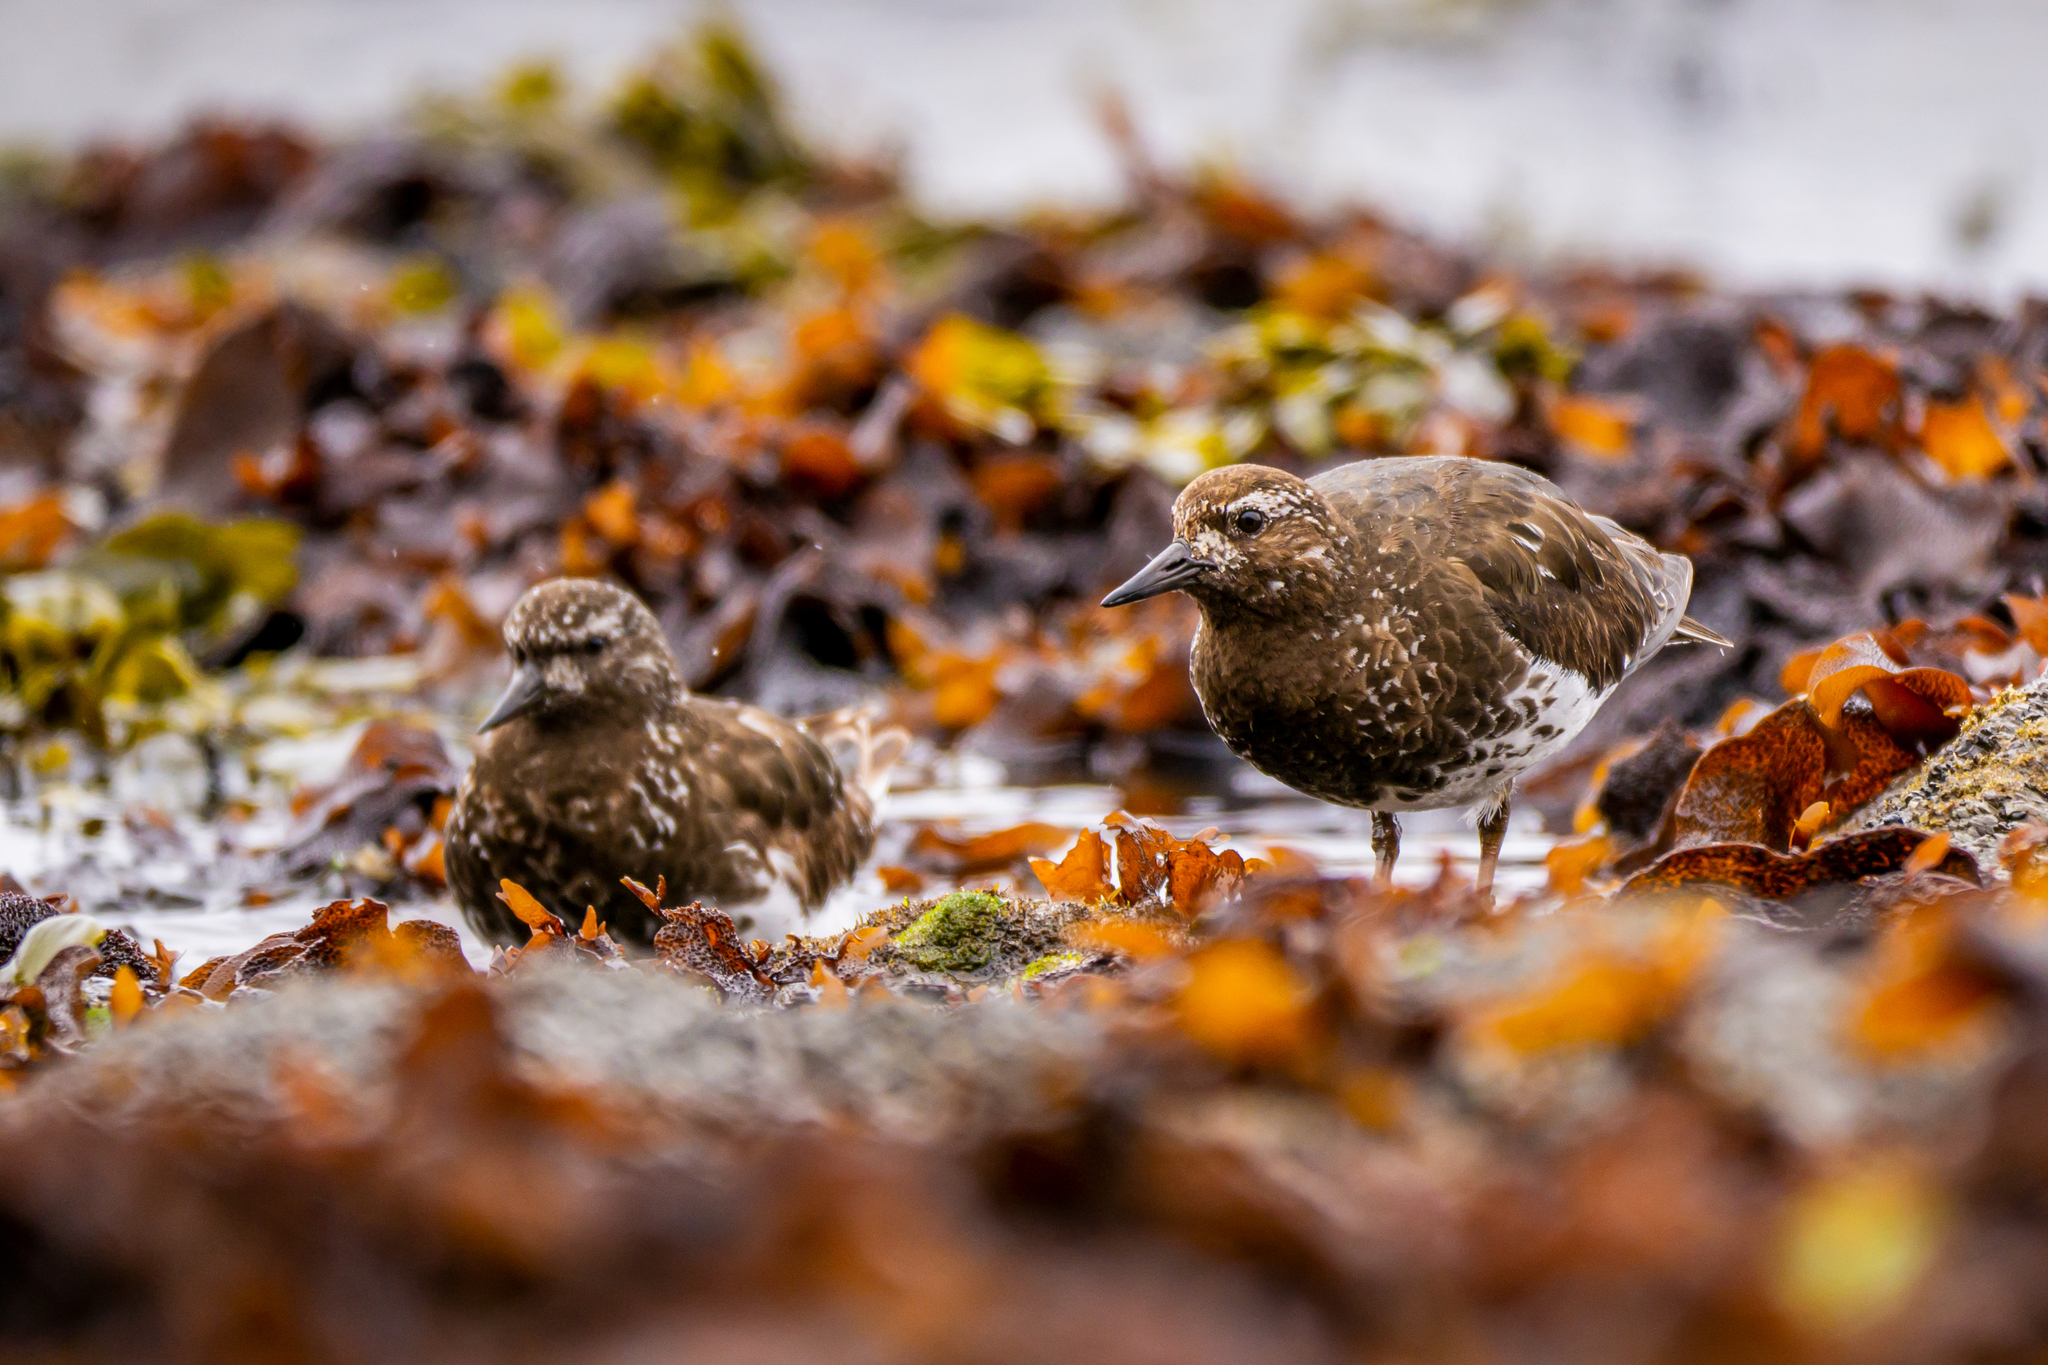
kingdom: Animalia
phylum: Chordata
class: Aves
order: Charadriiformes
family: Scolopacidae
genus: Arenaria
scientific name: Arenaria melanocephala
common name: Black turnstone
